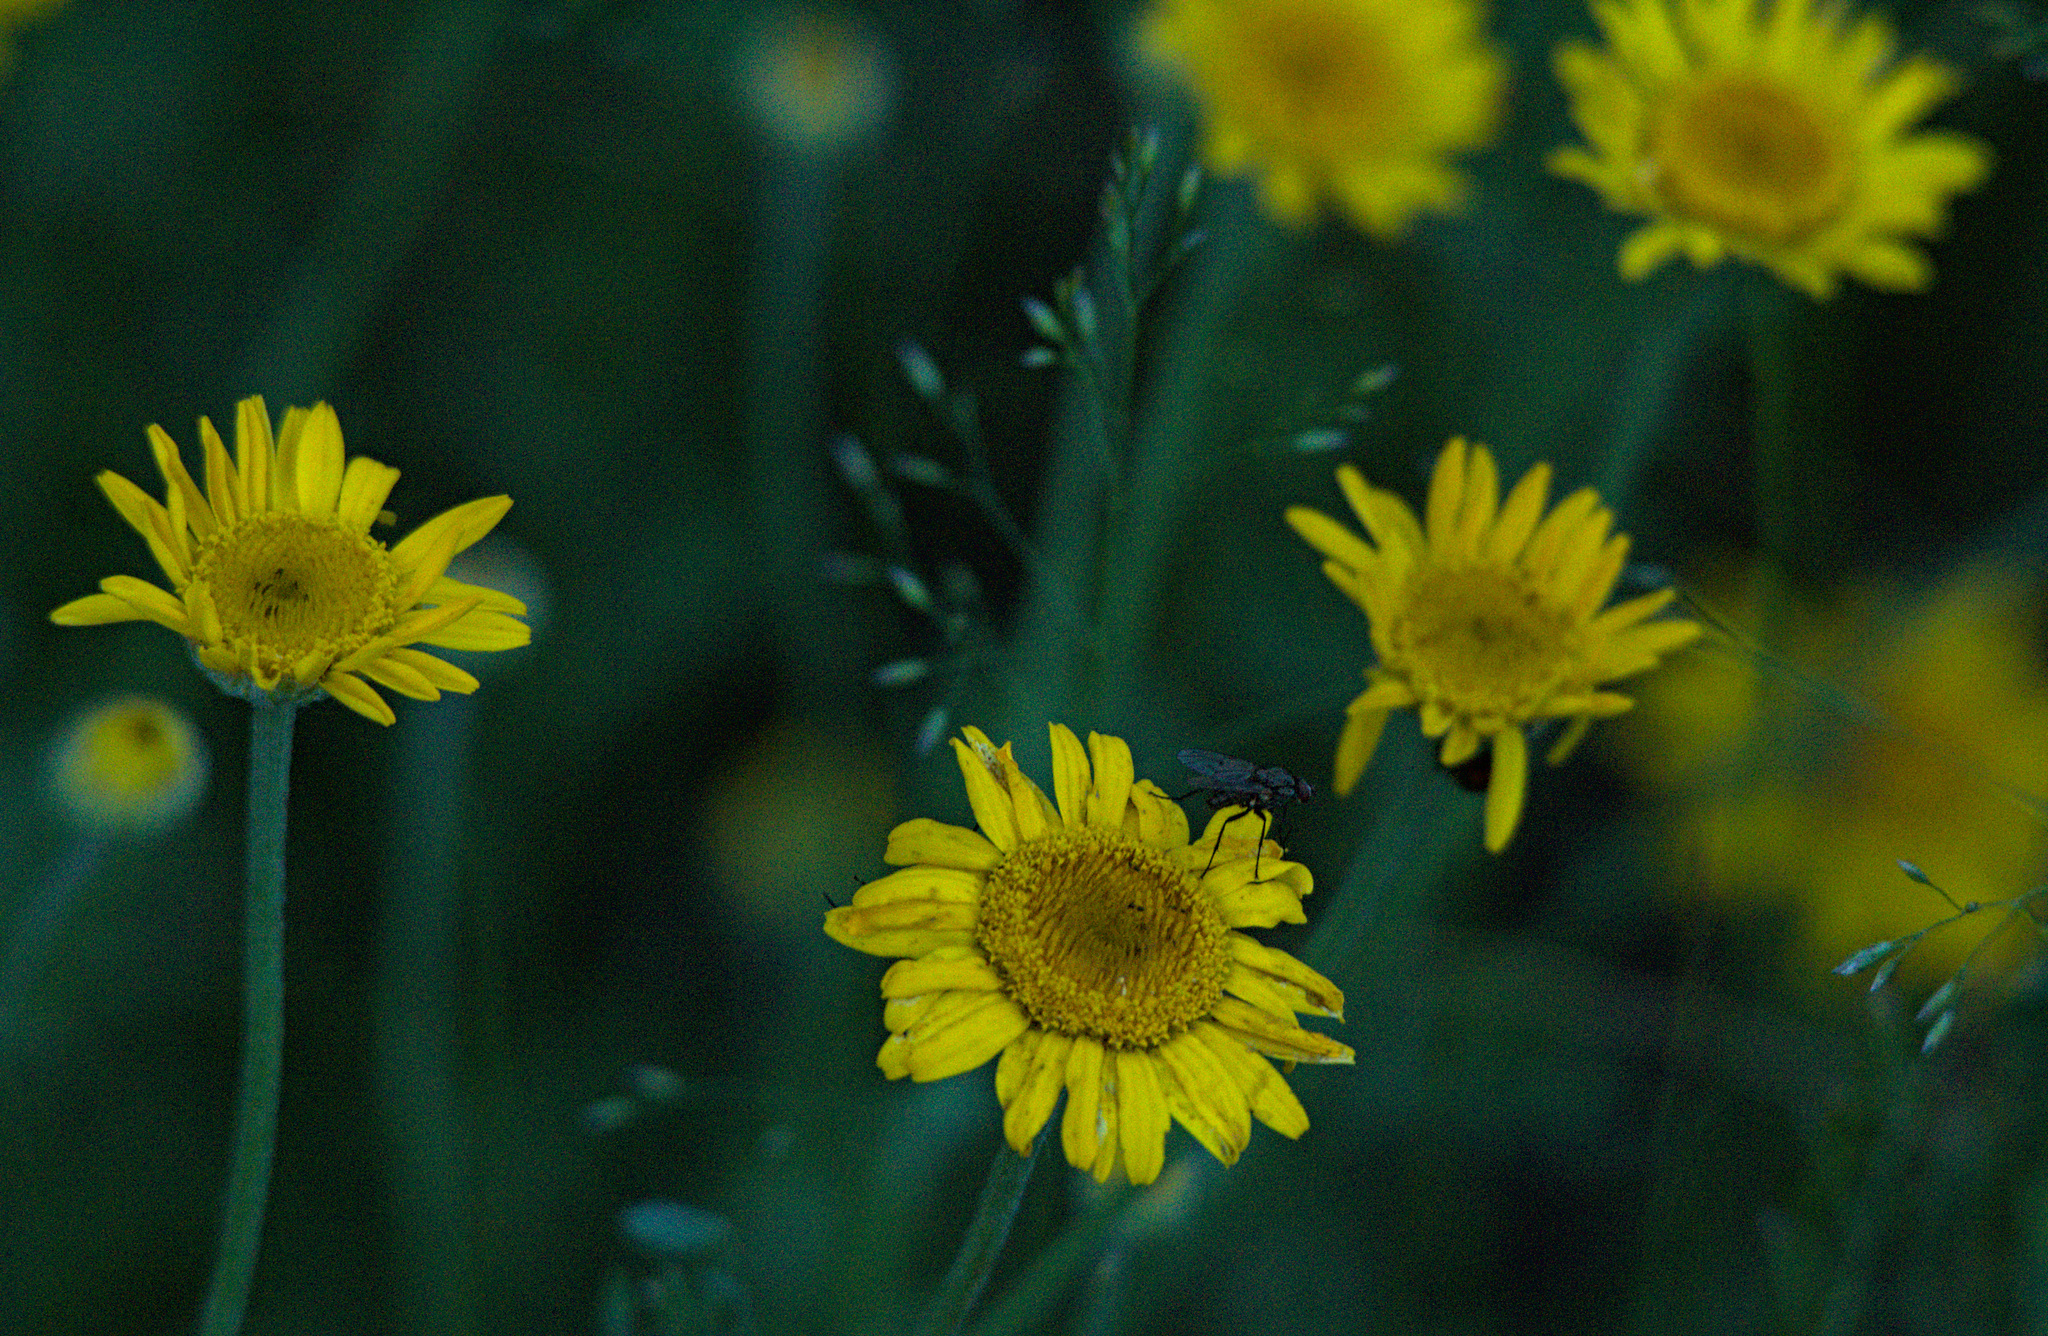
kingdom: Plantae
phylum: Tracheophyta
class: Magnoliopsida
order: Asterales
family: Asteraceae
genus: Cota
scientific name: Cota tinctoria
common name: Golden chamomile
